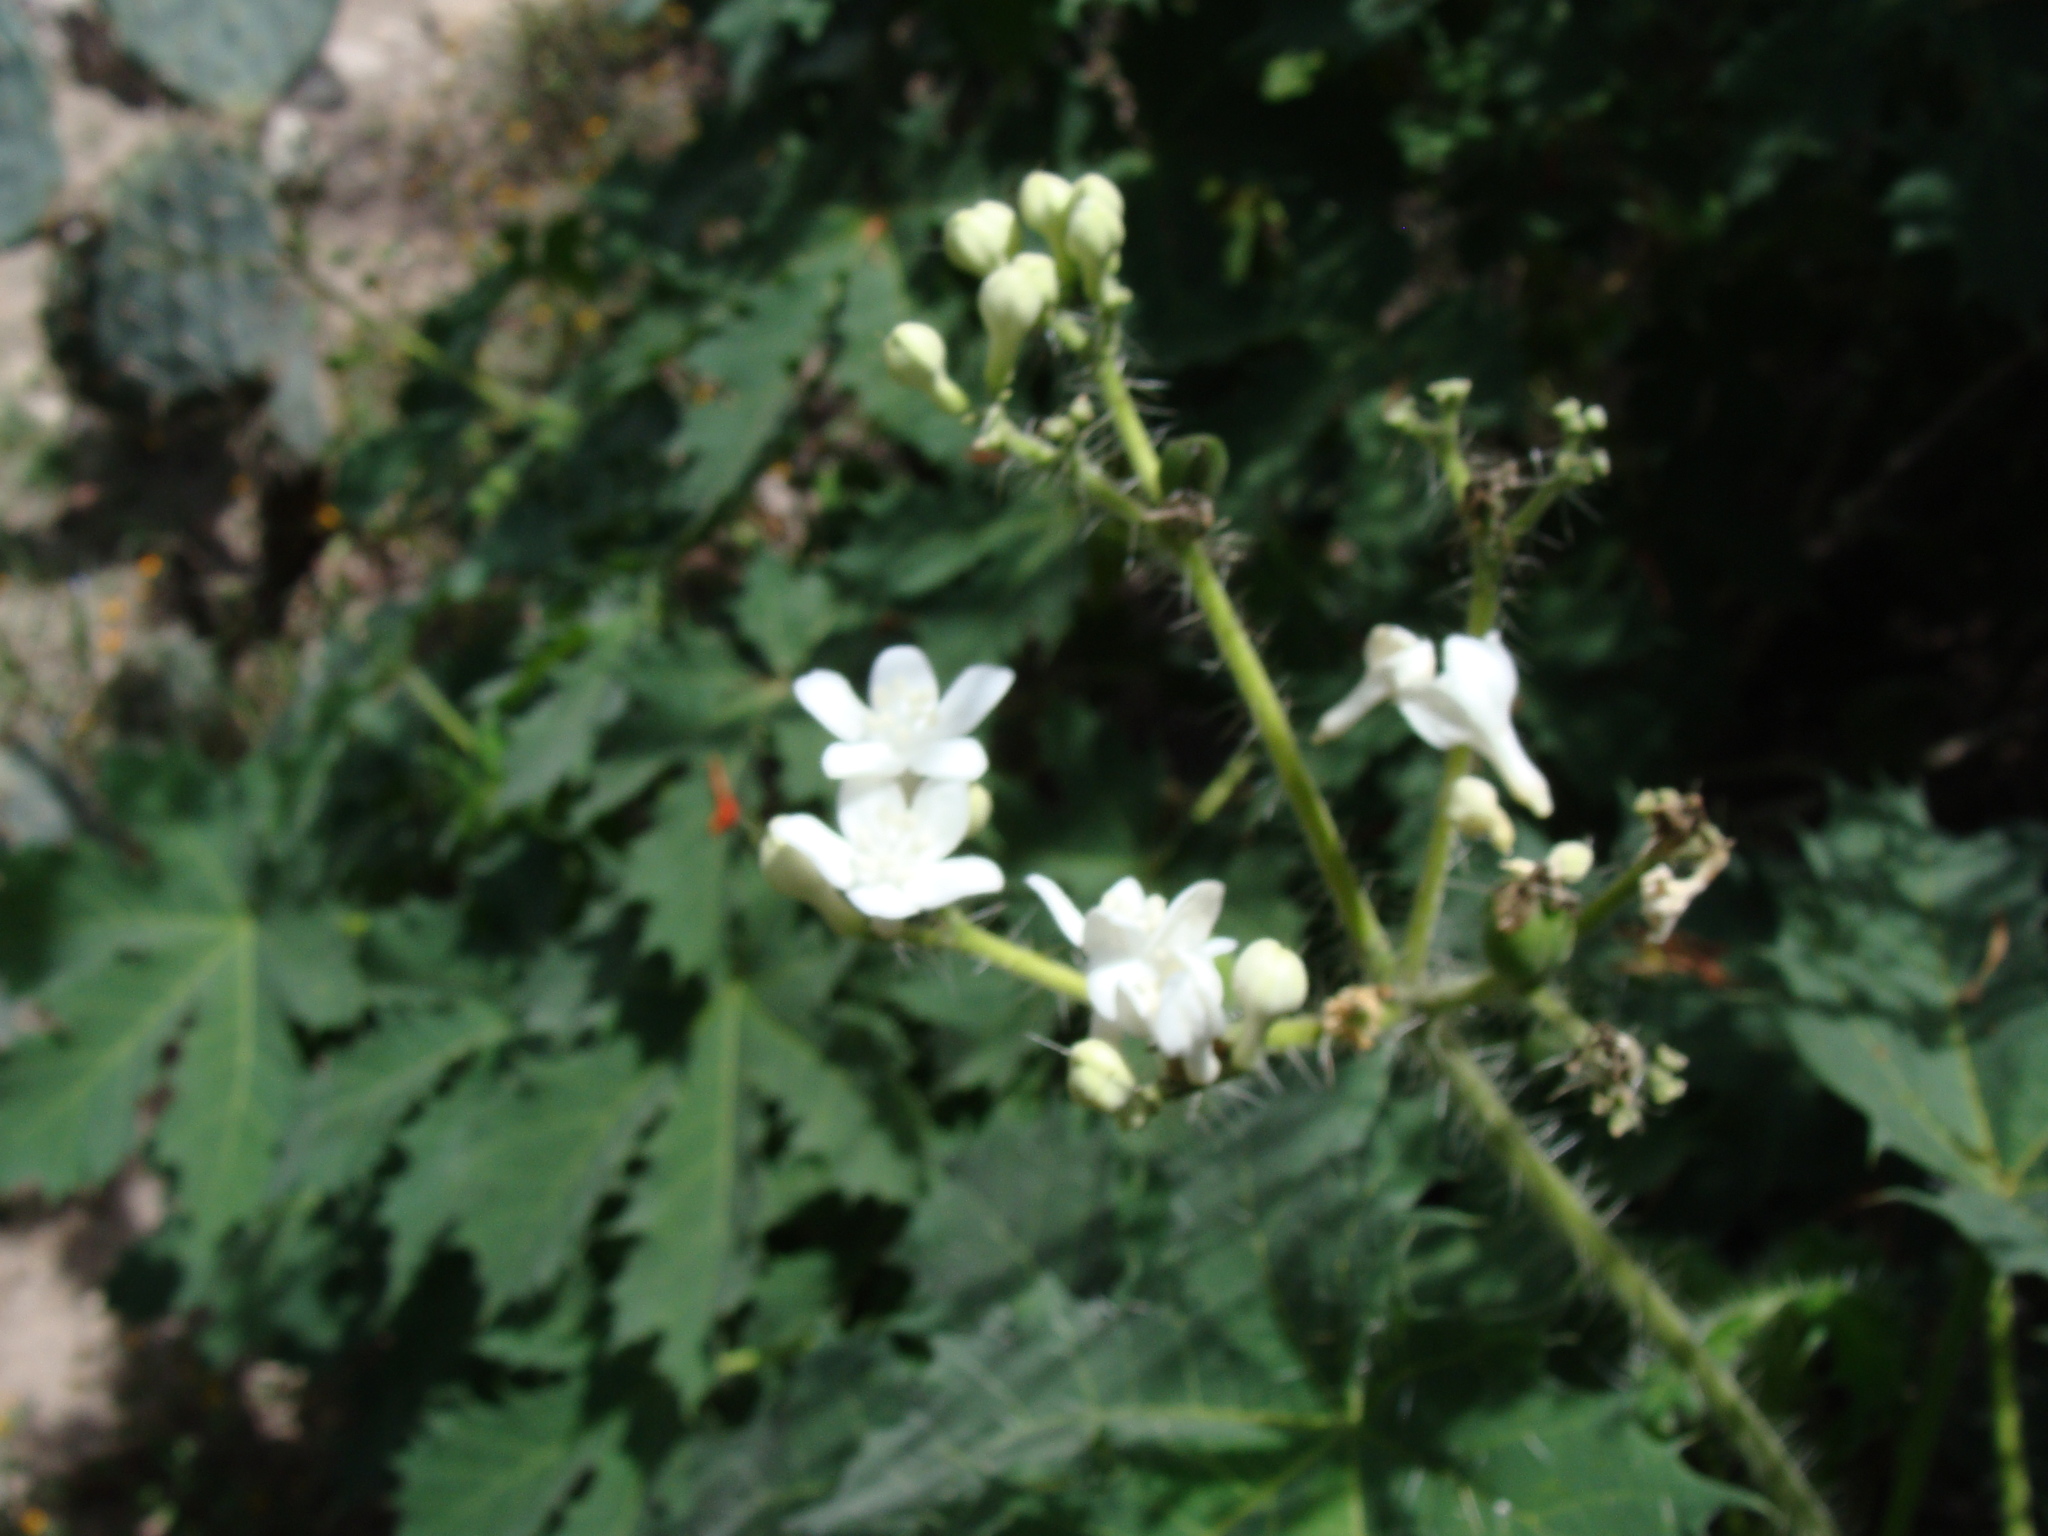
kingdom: Plantae
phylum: Tracheophyta
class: Magnoliopsida
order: Malpighiales
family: Euphorbiaceae
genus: Cnidoscolus
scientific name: Cnidoscolus rzedowskii
